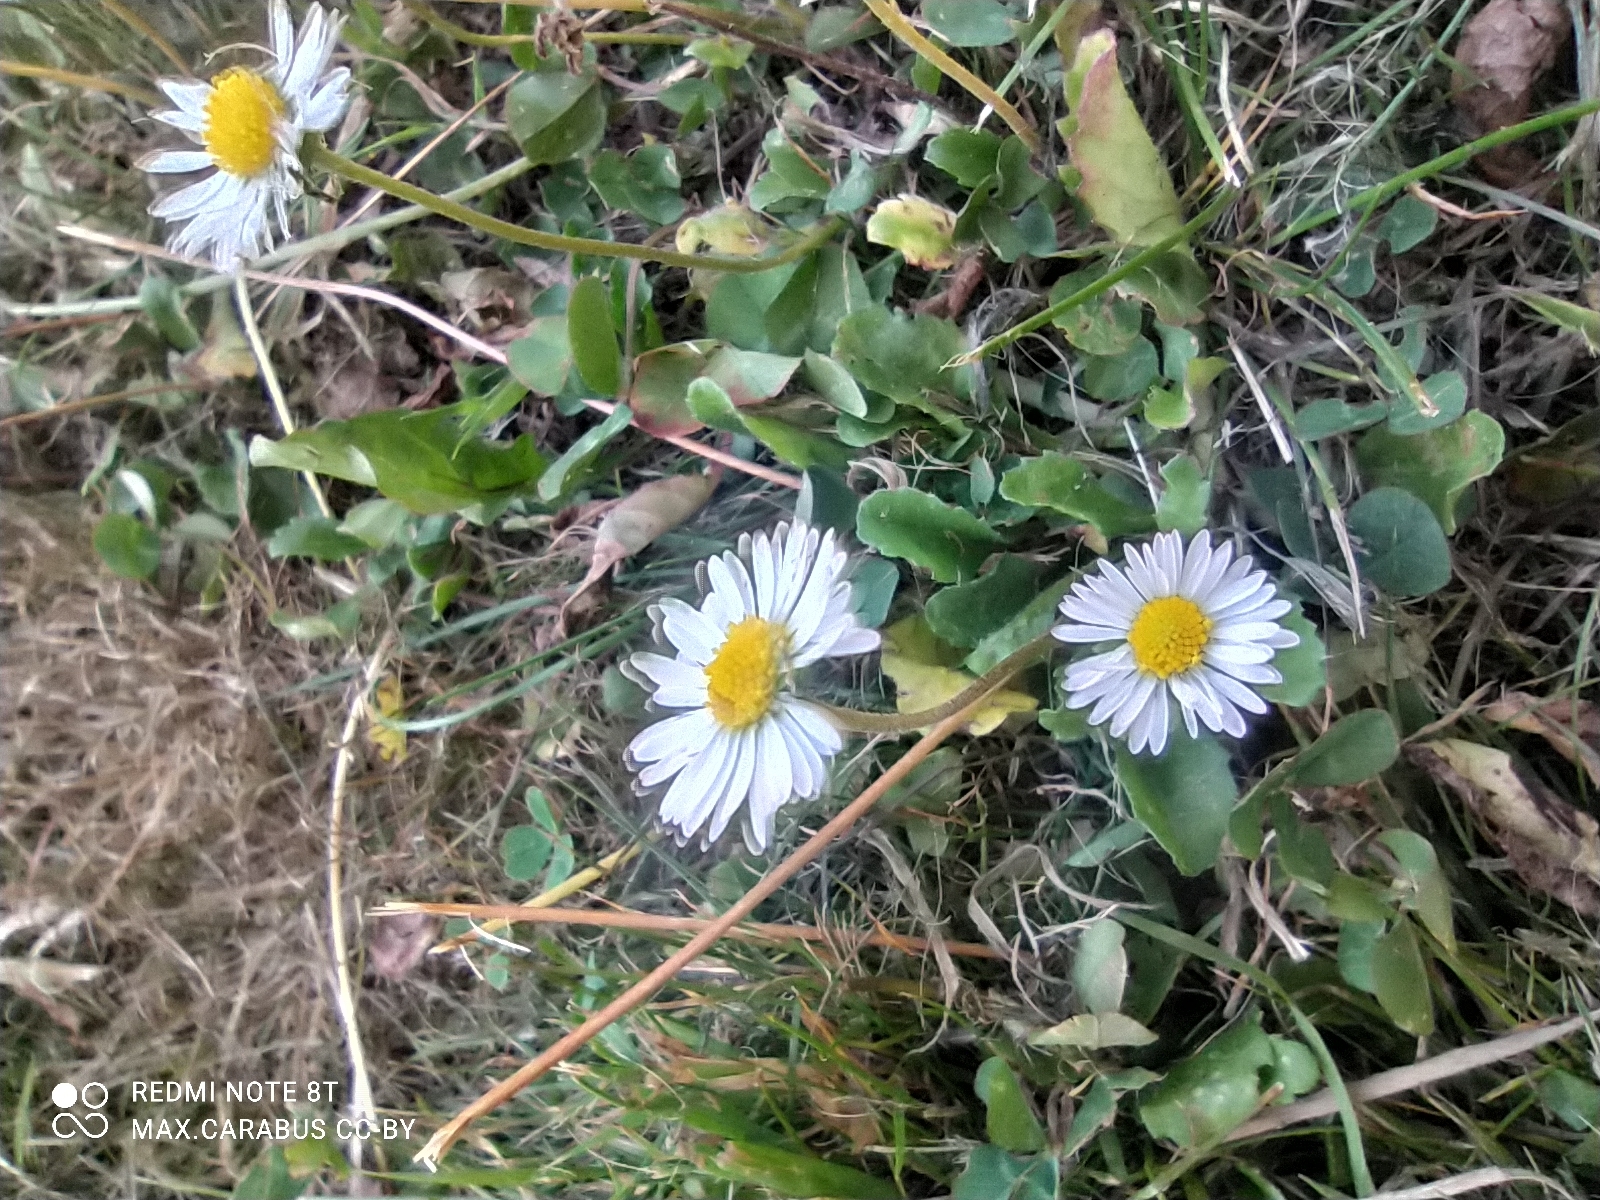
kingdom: Plantae
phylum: Tracheophyta
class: Magnoliopsida
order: Asterales
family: Asteraceae
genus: Bellis
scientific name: Bellis perennis
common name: Lawndaisy
